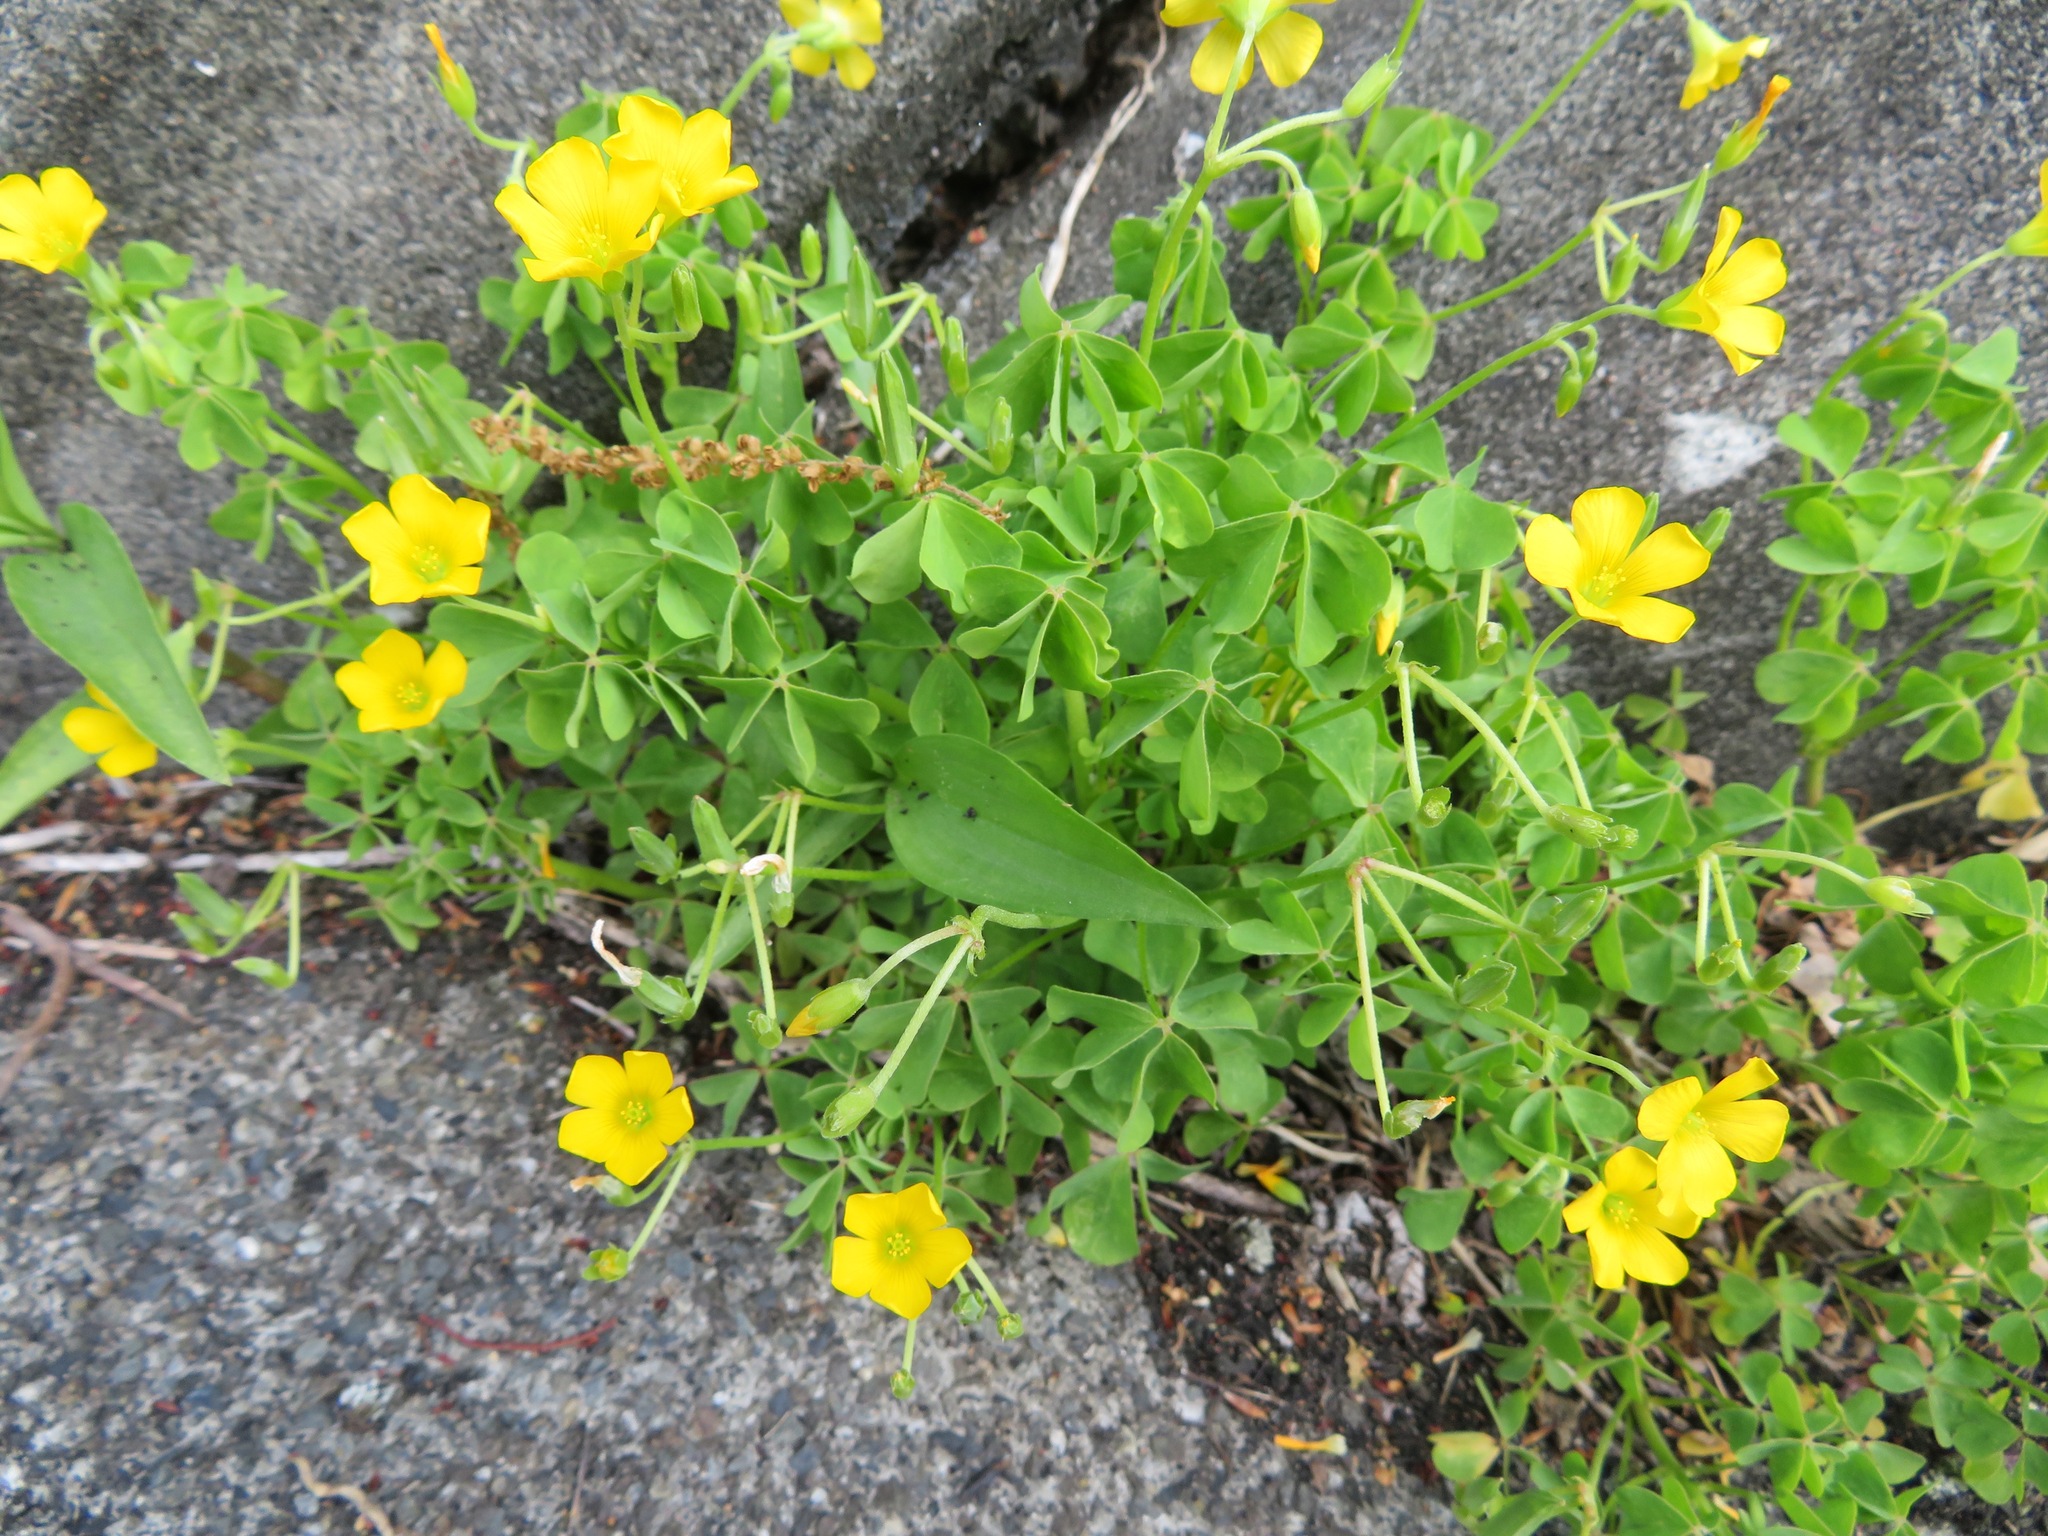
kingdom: Plantae
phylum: Tracheophyta
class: Magnoliopsida
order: Oxalidales
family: Oxalidaceae
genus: Oxalis
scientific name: Oxalis dillenii
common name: Sussex yellow-sorrel
